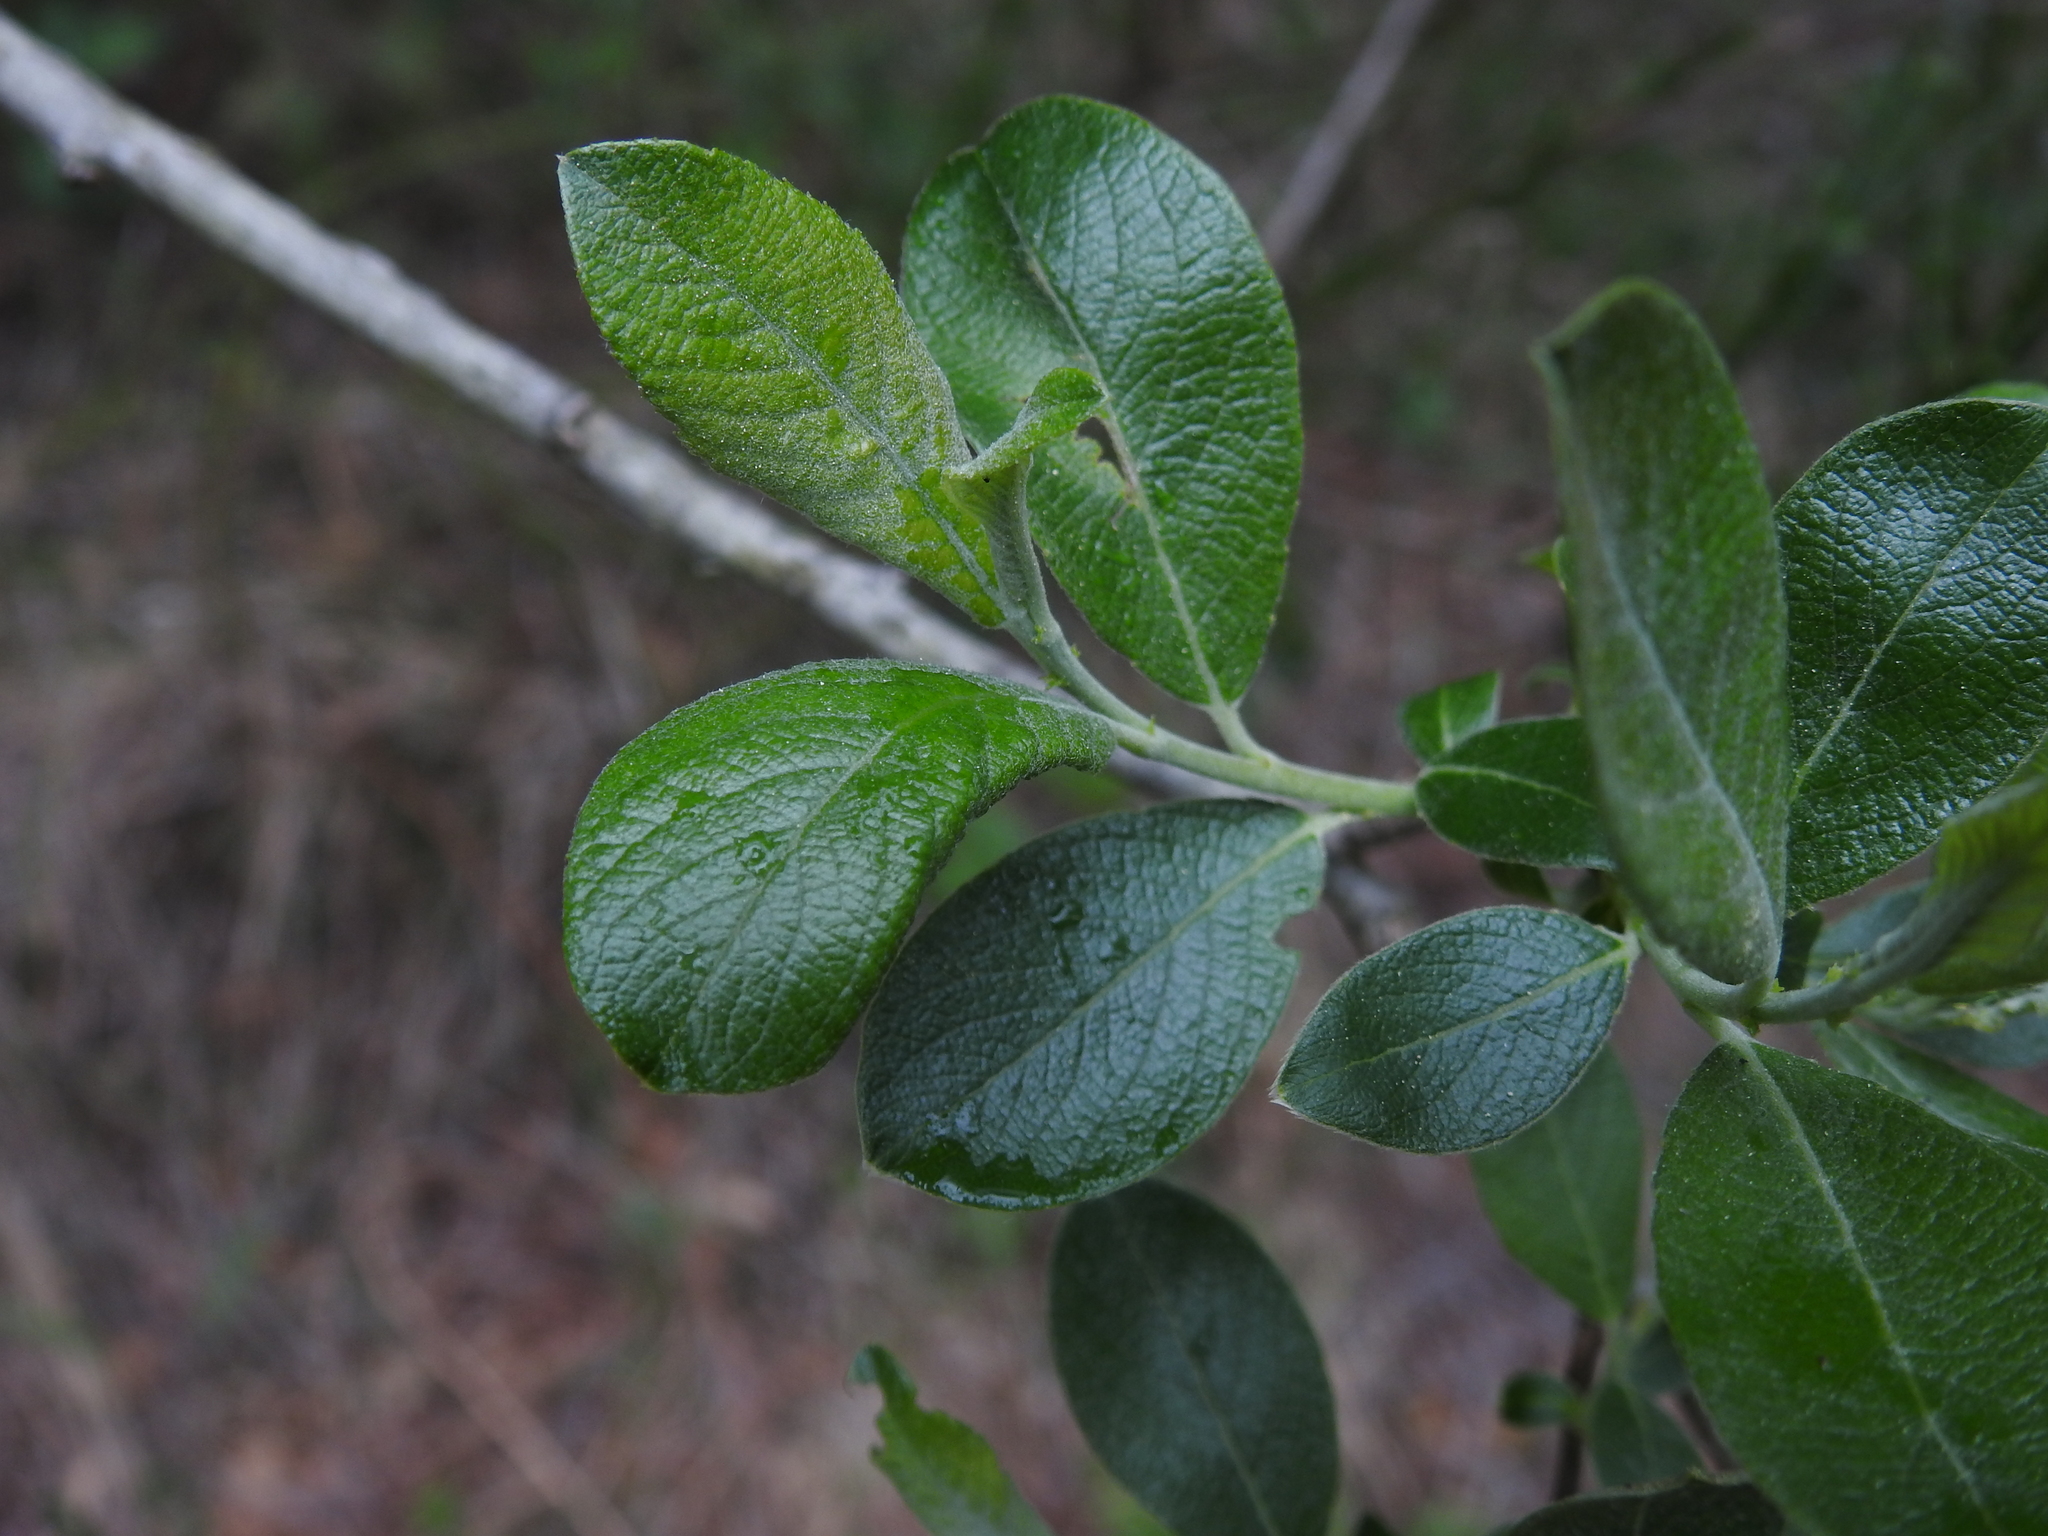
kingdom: Plantae
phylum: Tracheophyta
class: Magnoliopsida
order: Malpighiales
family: Salicaceae
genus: Salix
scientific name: Salix caprea
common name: Goat willow
